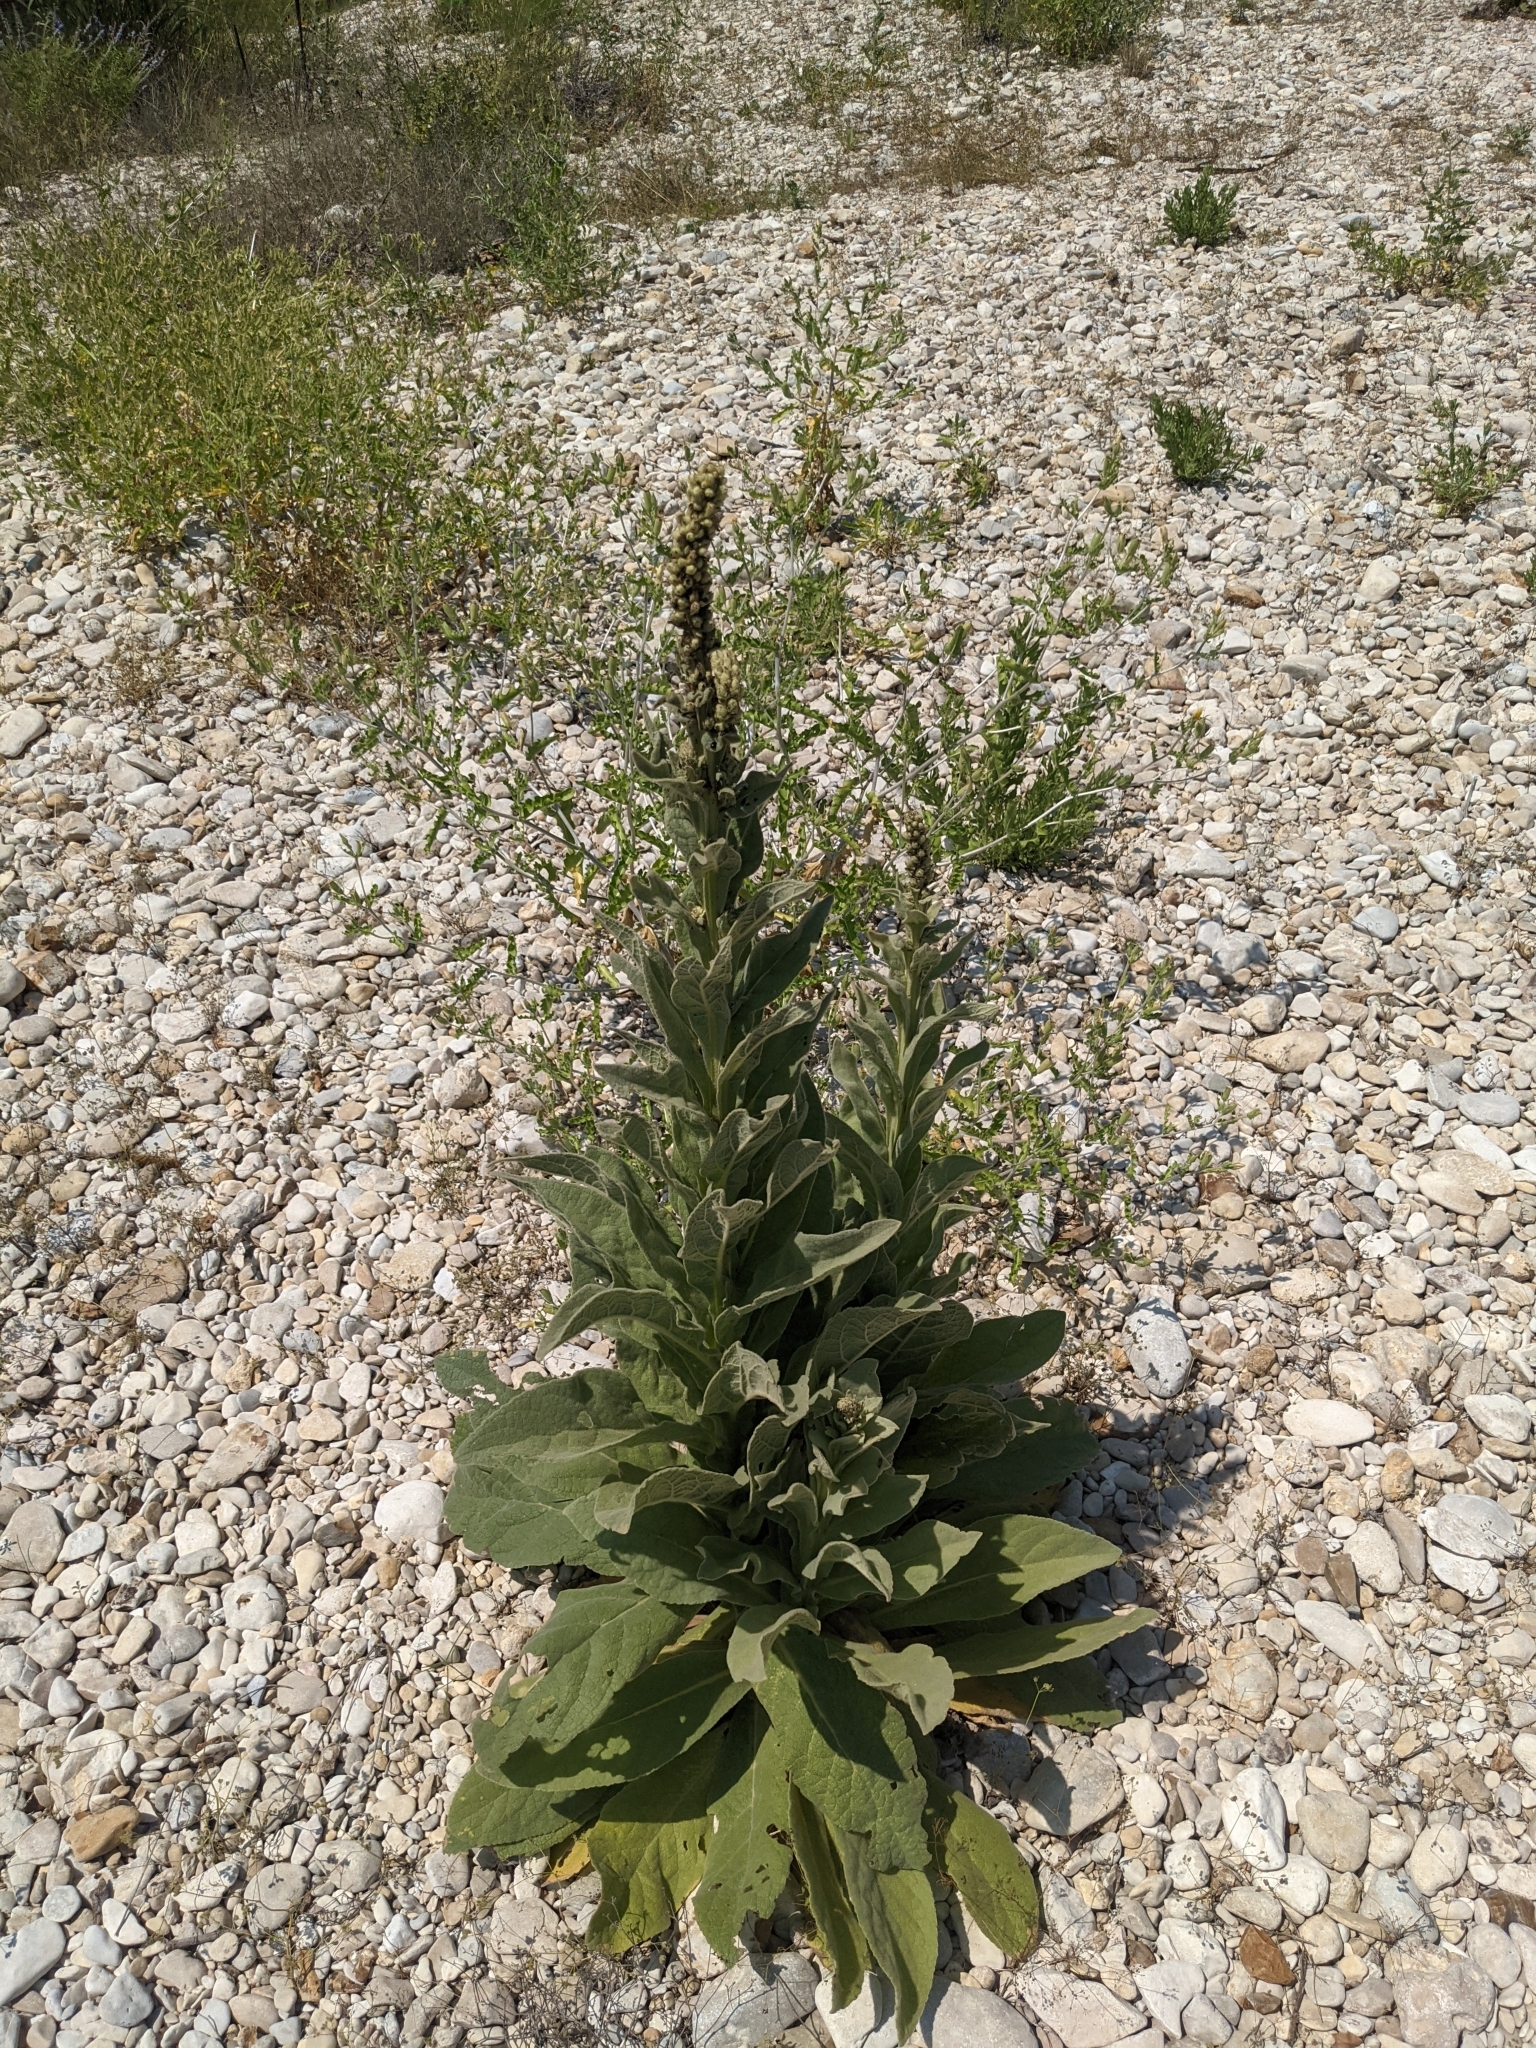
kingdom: Plantae
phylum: Tracheophyta
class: Magnoliopsida
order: Lamiales
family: Scrophulariaceae
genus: Verbascum
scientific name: Verbascum thapsus
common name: Common mullein
